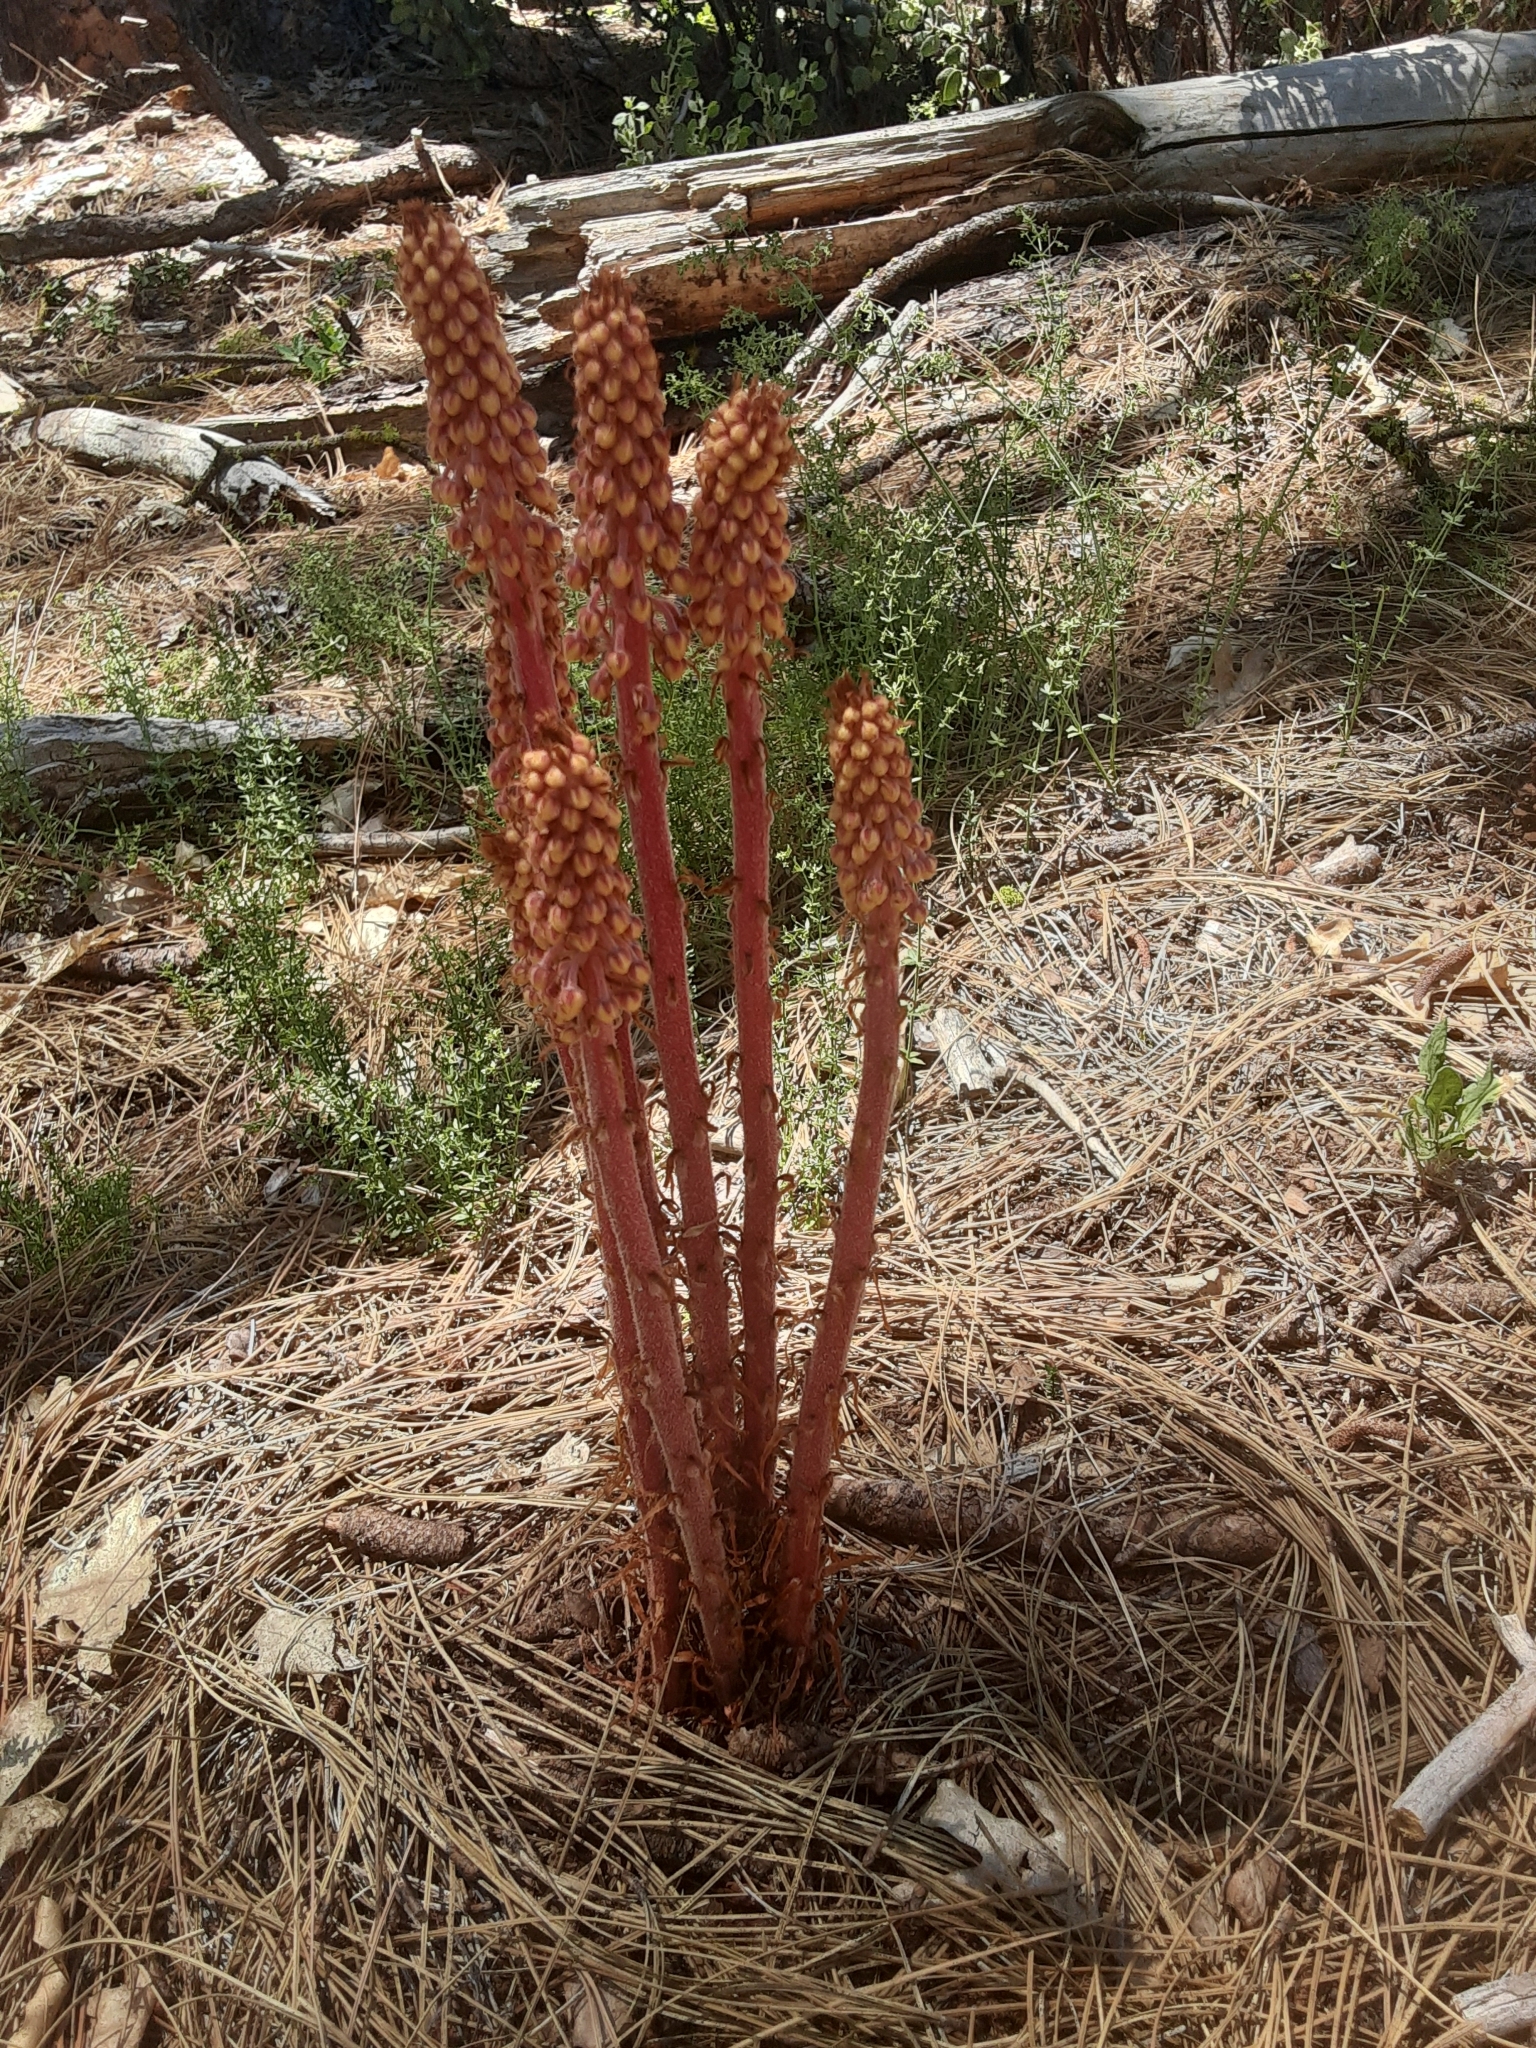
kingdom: Plantae
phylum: Tracheophyta
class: Magnoliopsida
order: Ericales
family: Ericaceae
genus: Pterospora
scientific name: Pterospora andromedea
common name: Giant bird's-nest
